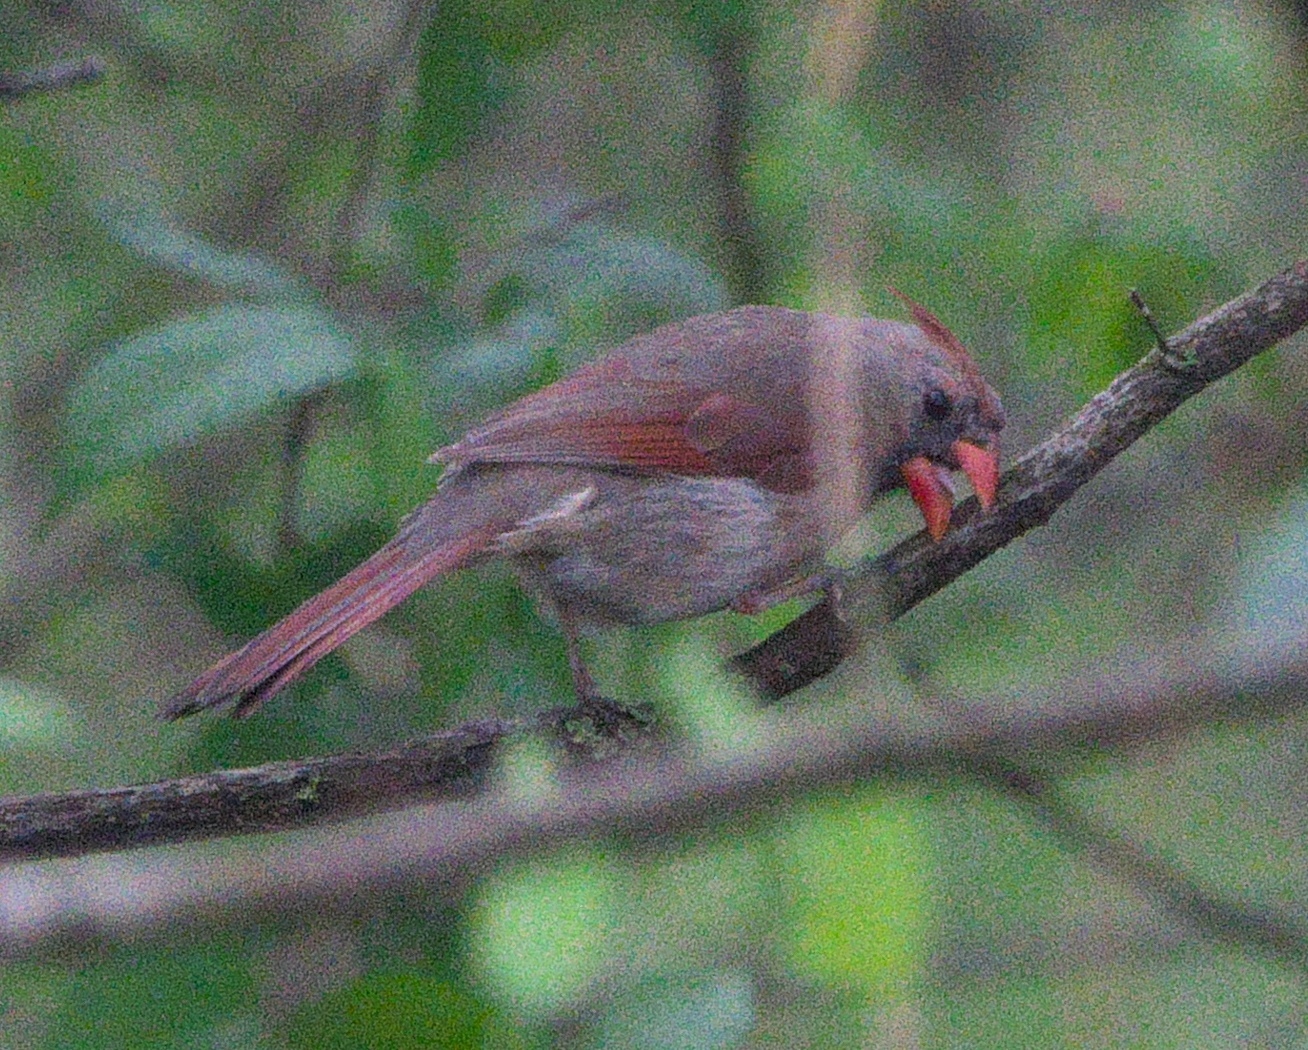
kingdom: Animalia
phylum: Chordata
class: Aves
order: Passeriformes
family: Cardinalidae
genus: Cardinalis
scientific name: Cardinalis cardinalis
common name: Northern cardinal
